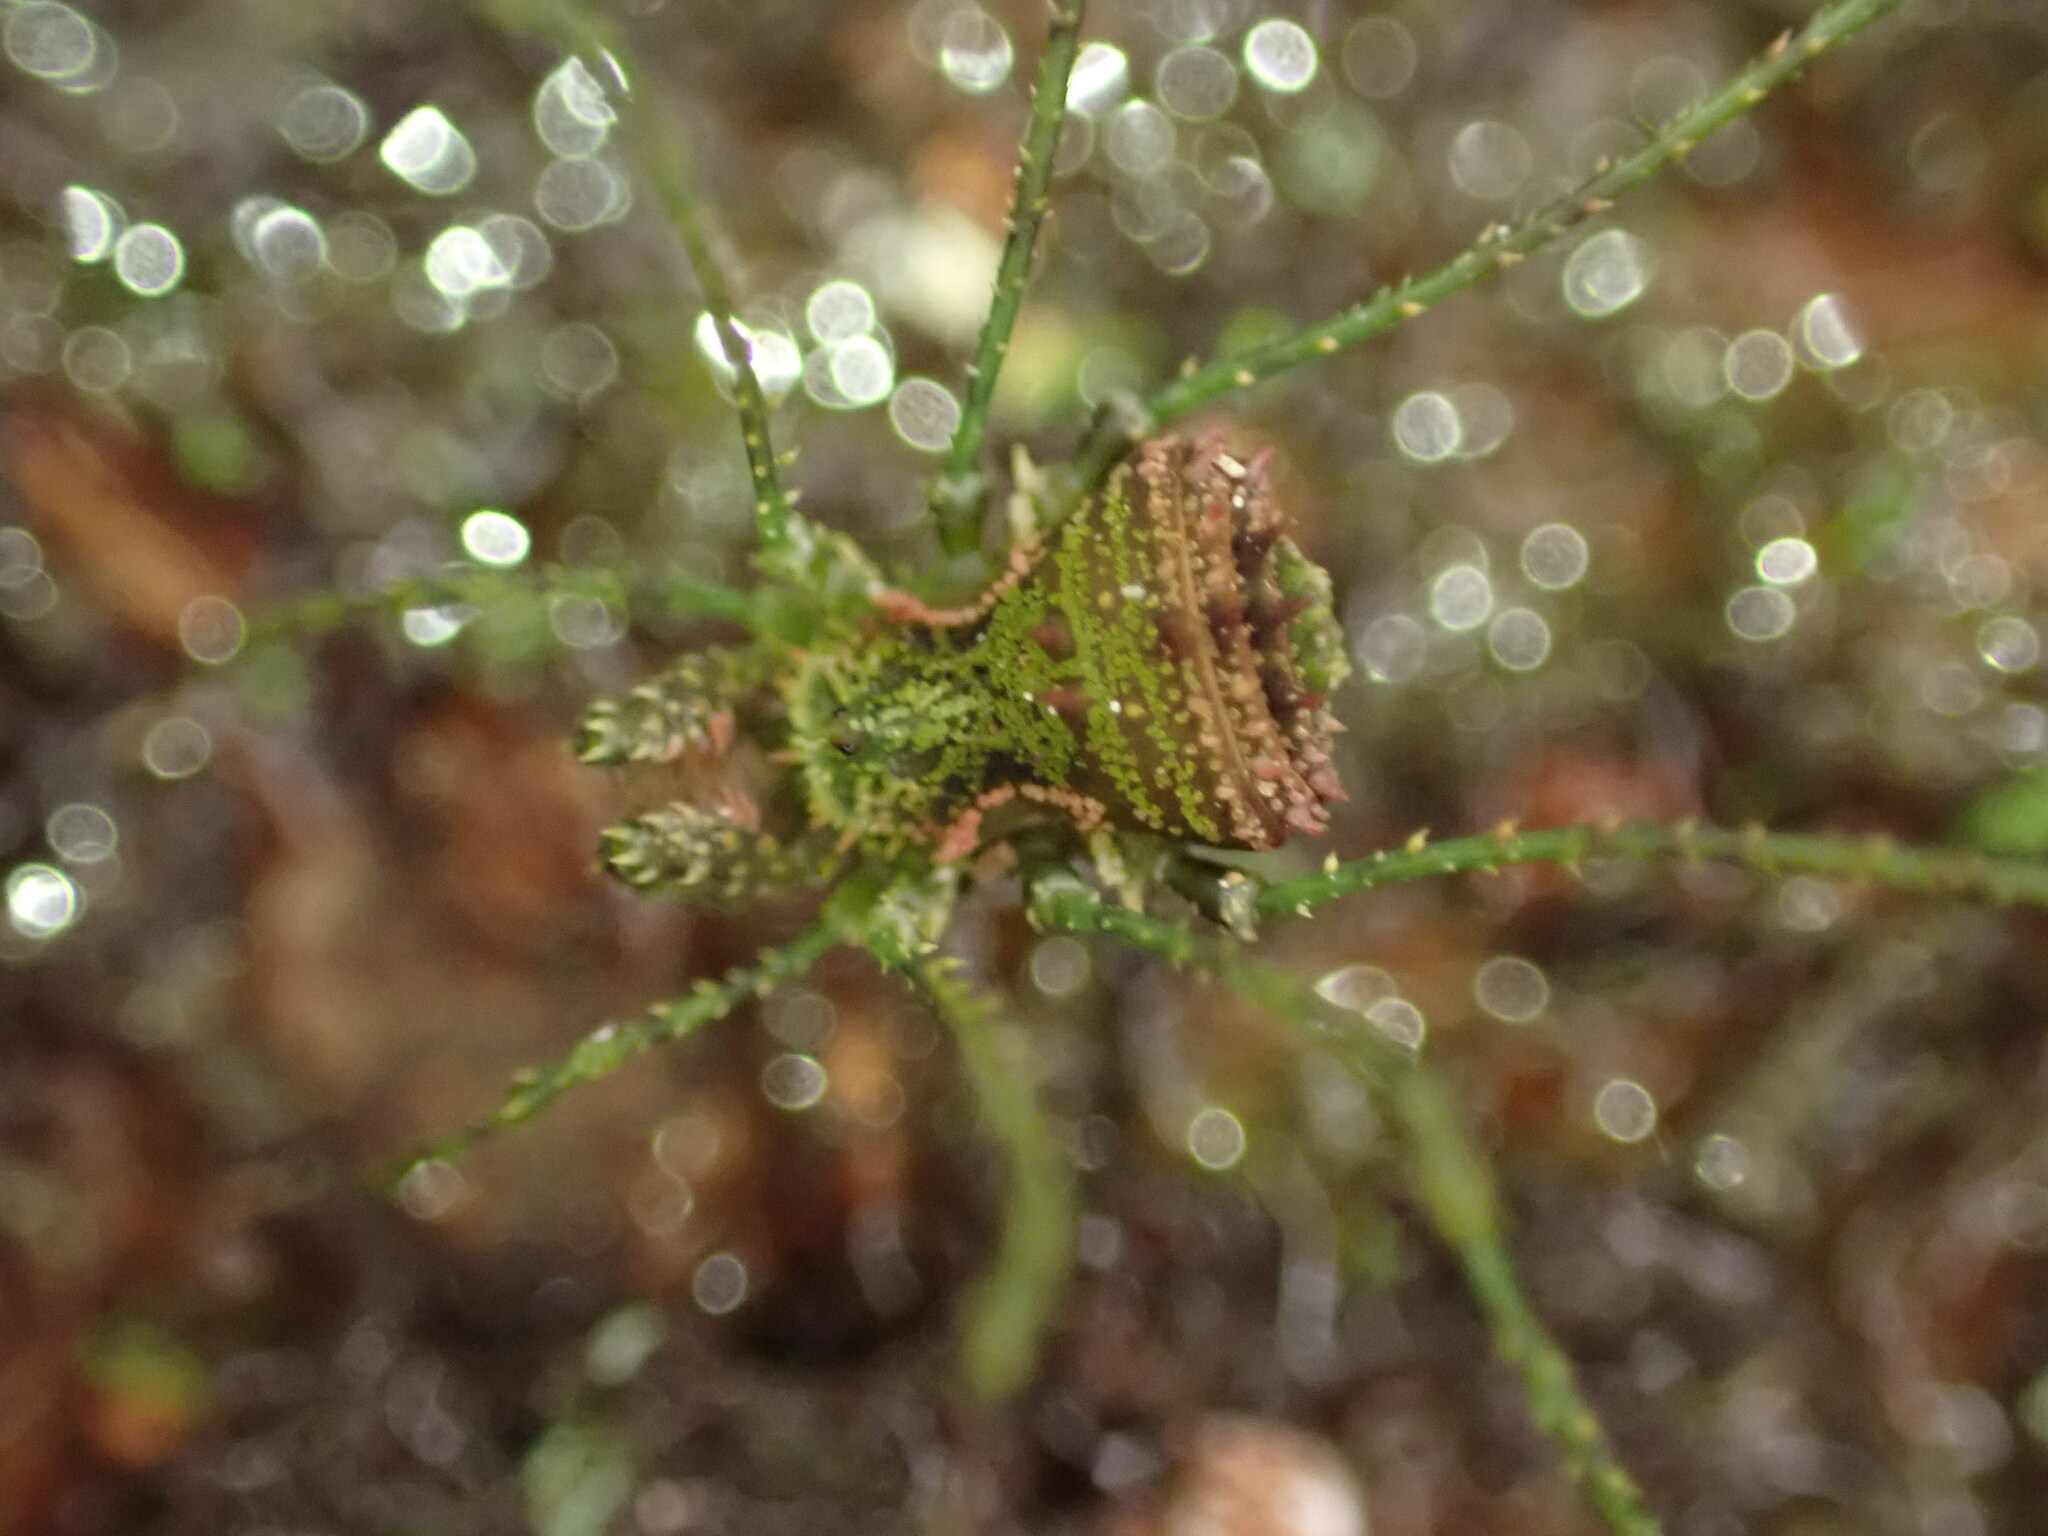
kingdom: Animalia
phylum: Arthropoda
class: Arachnida
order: Opiliones
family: Triaenonychidae
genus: Algidia
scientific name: Algidia viridata
